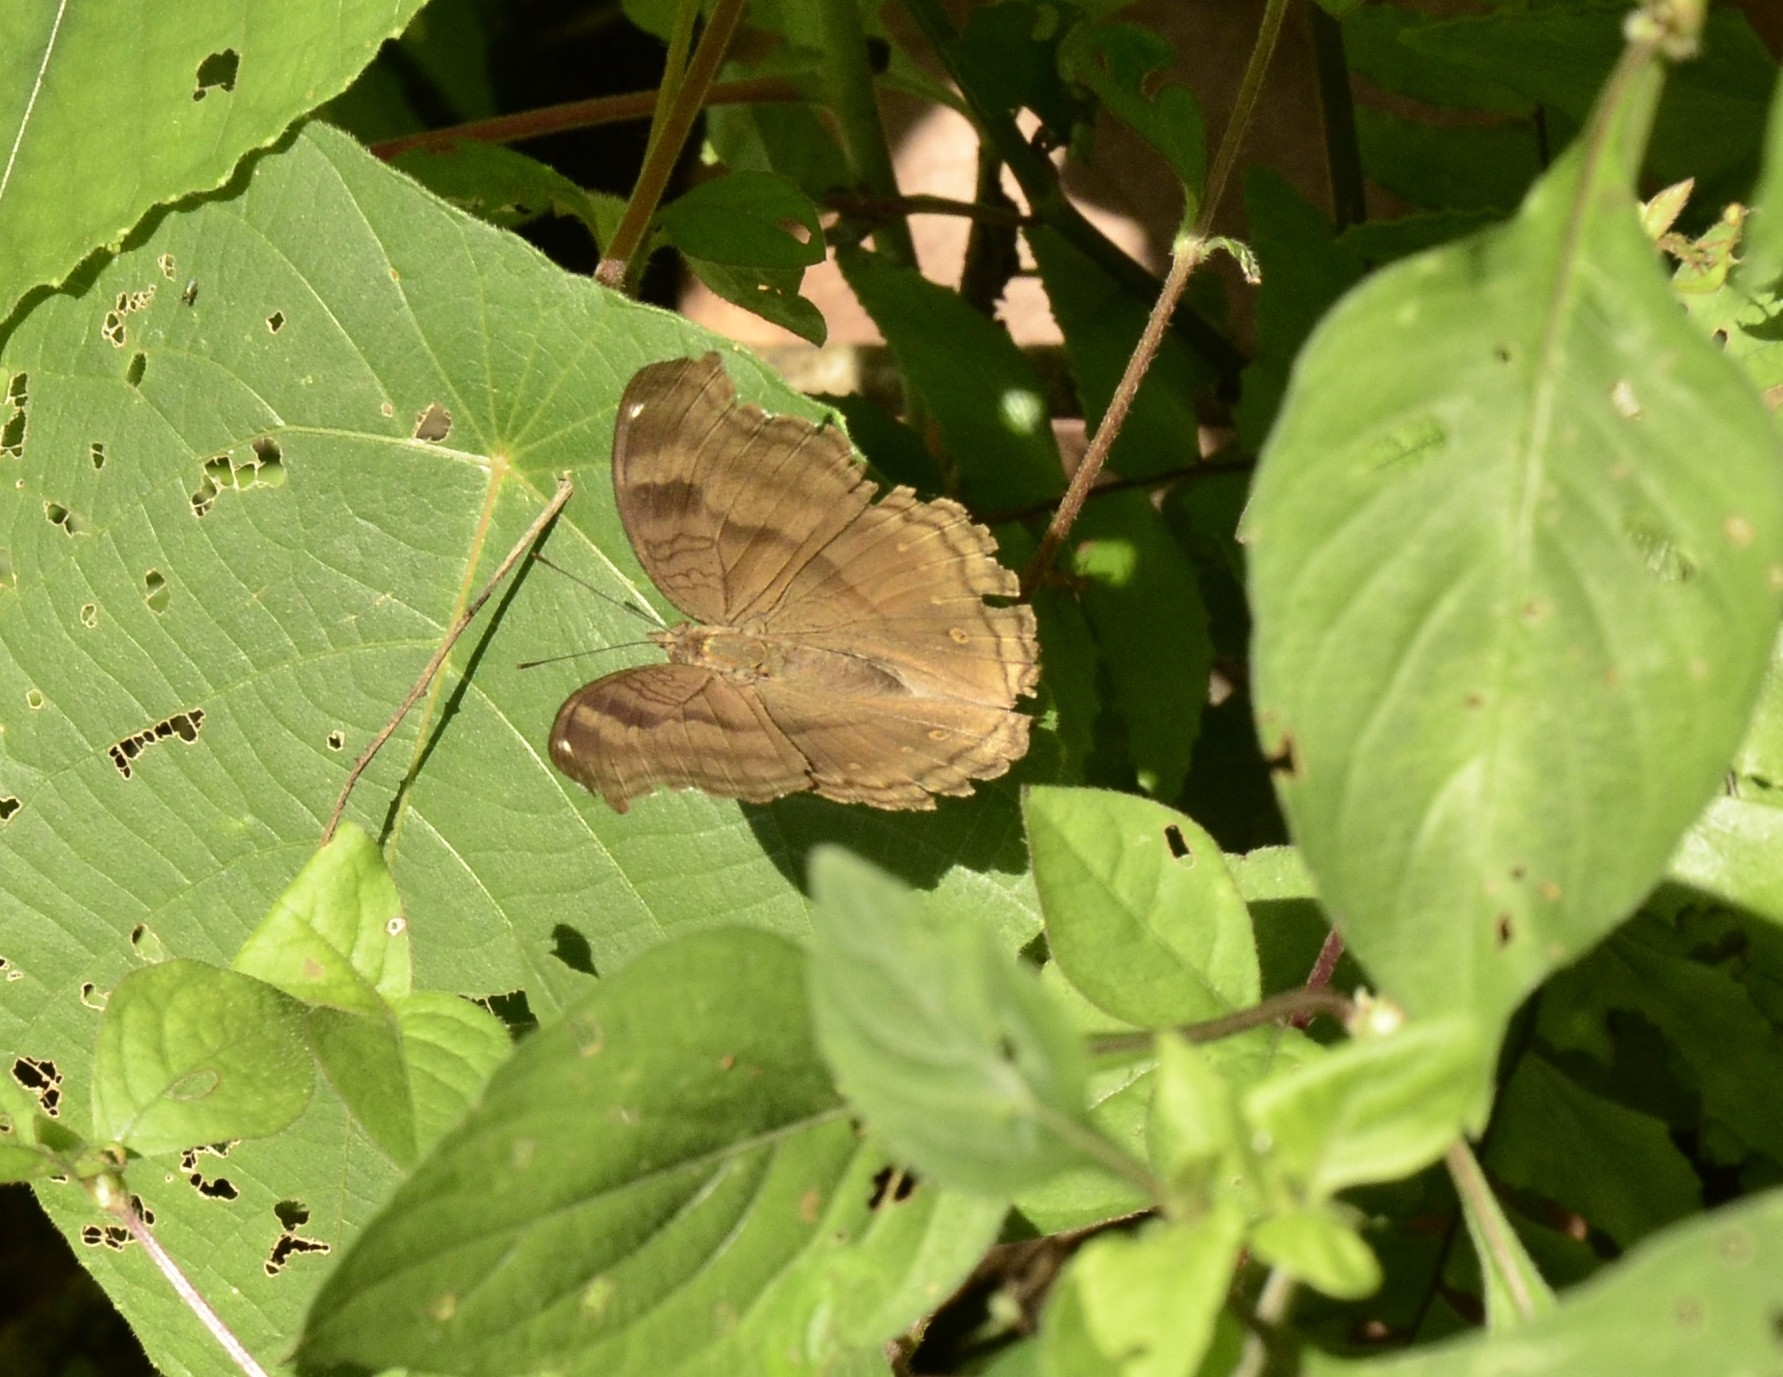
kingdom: Animalia
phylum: Arthropoda
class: Insecta
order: Lepidoptera
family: Nymphalidae
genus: Junonia
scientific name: Junonia iphita
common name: Chocolate pansy
